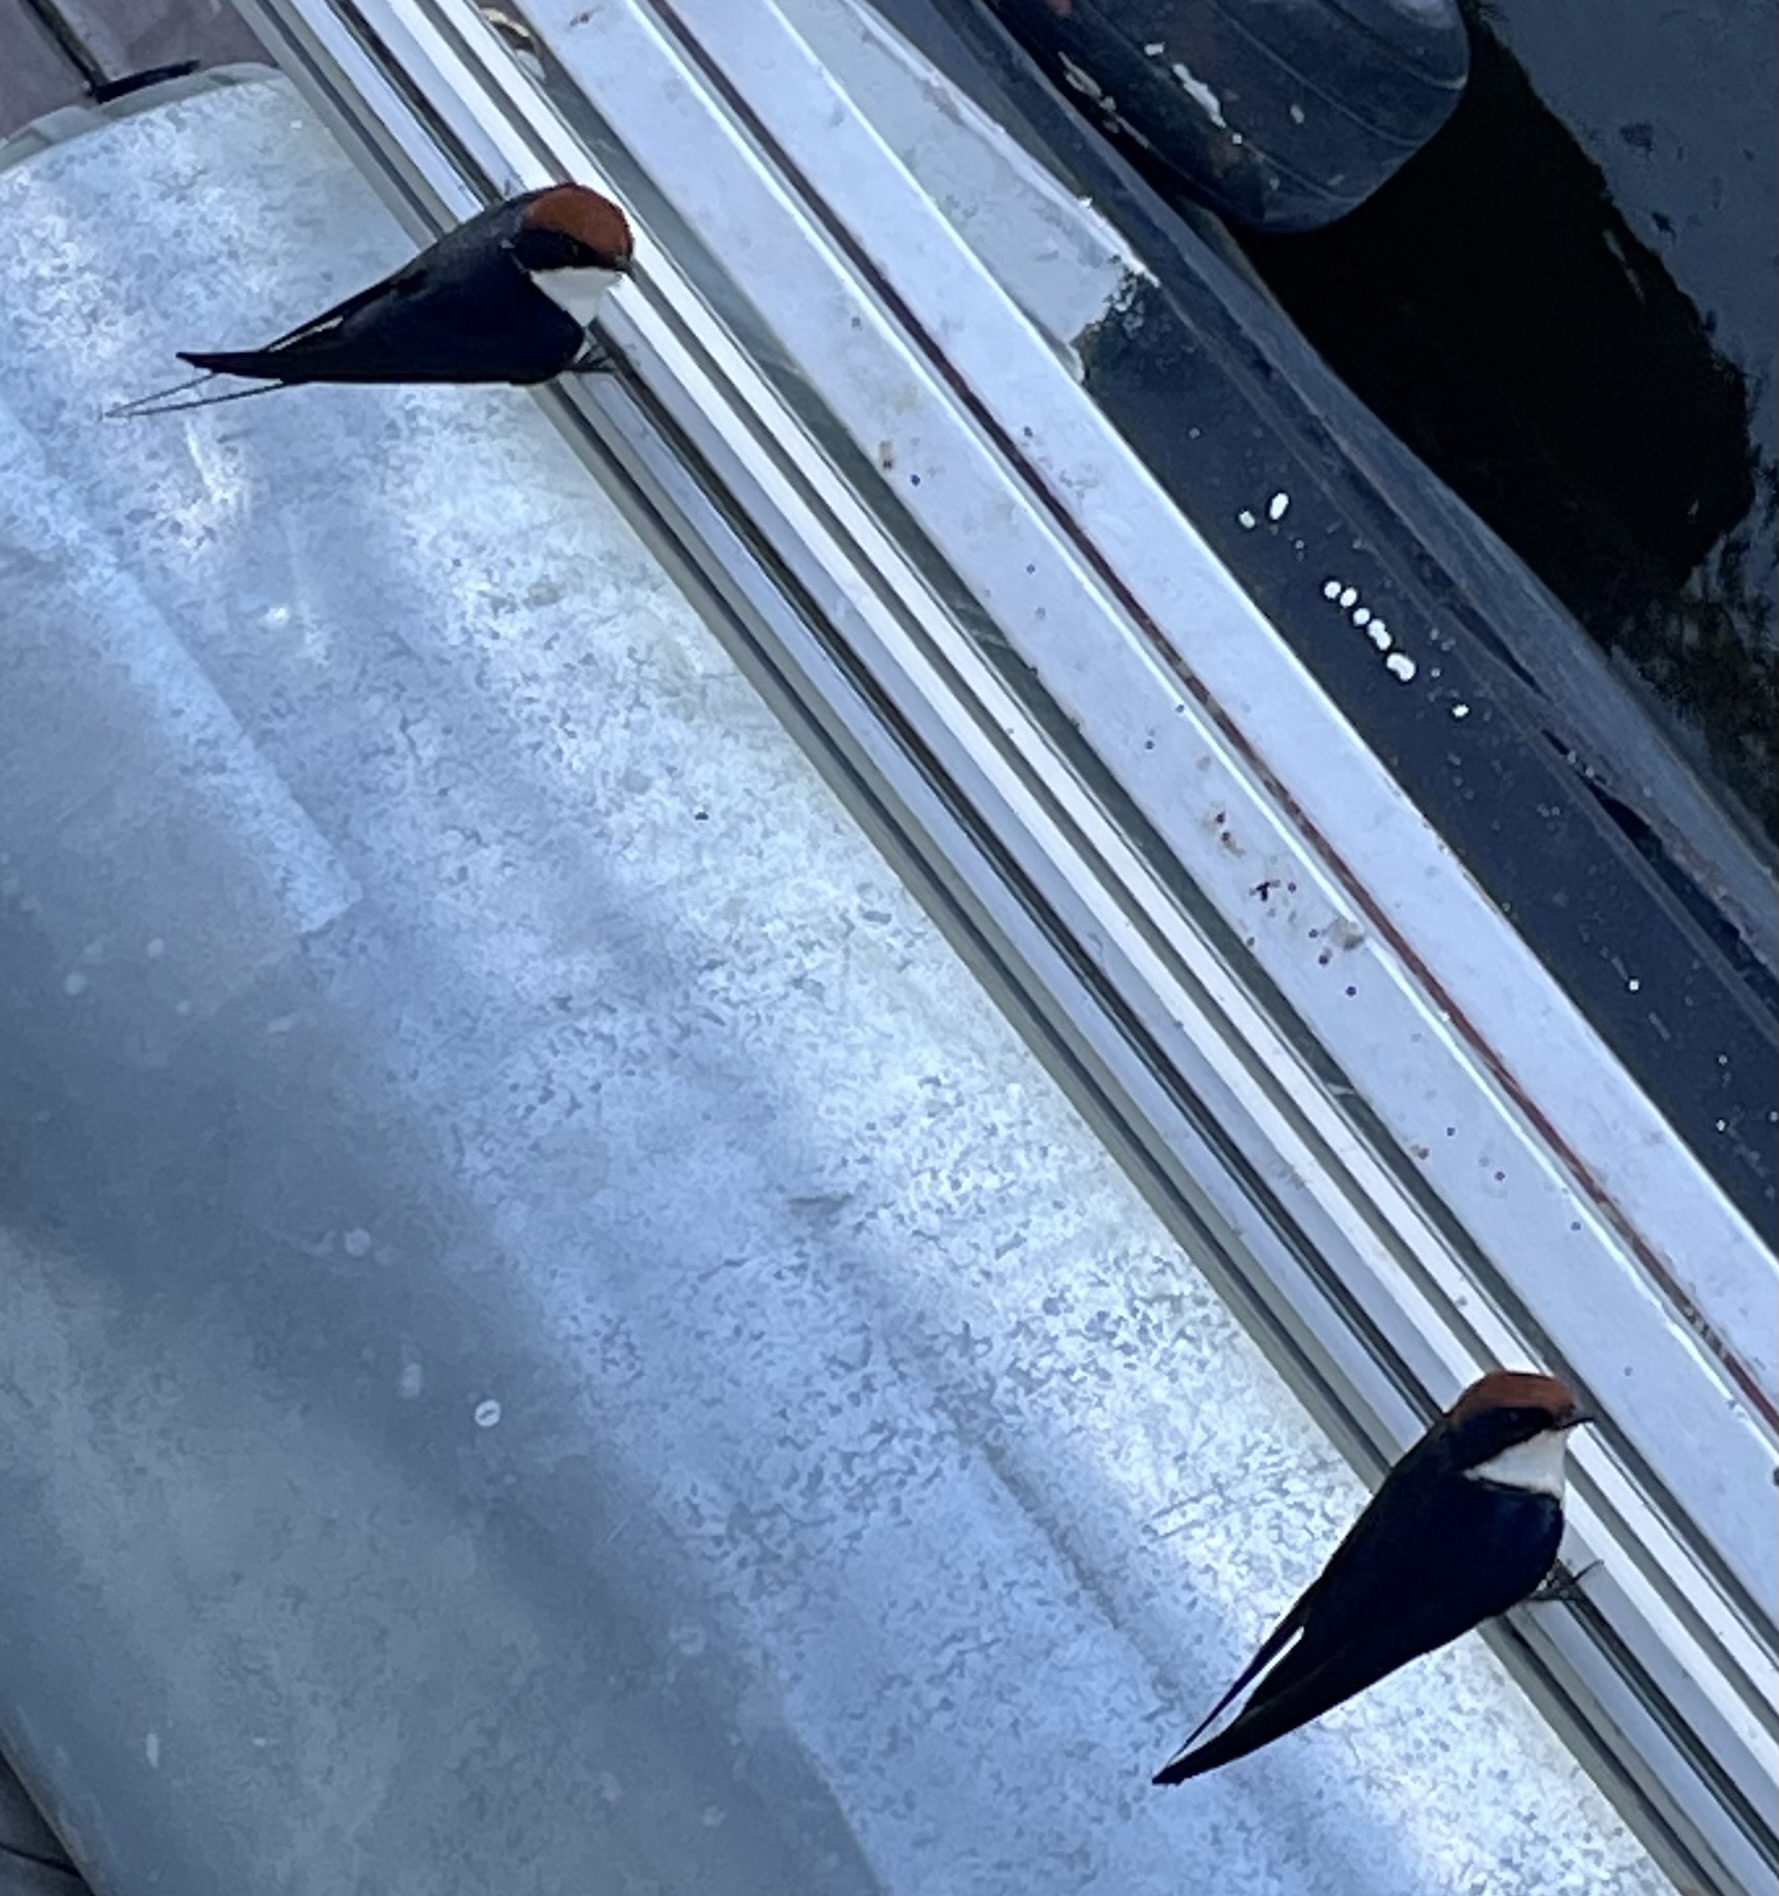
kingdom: Animalia
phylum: Chordata
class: Aves
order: Passeriformes
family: Hirundinidae
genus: Hirundo
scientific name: Hirundo smithii
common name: Wire-tailed swallow
